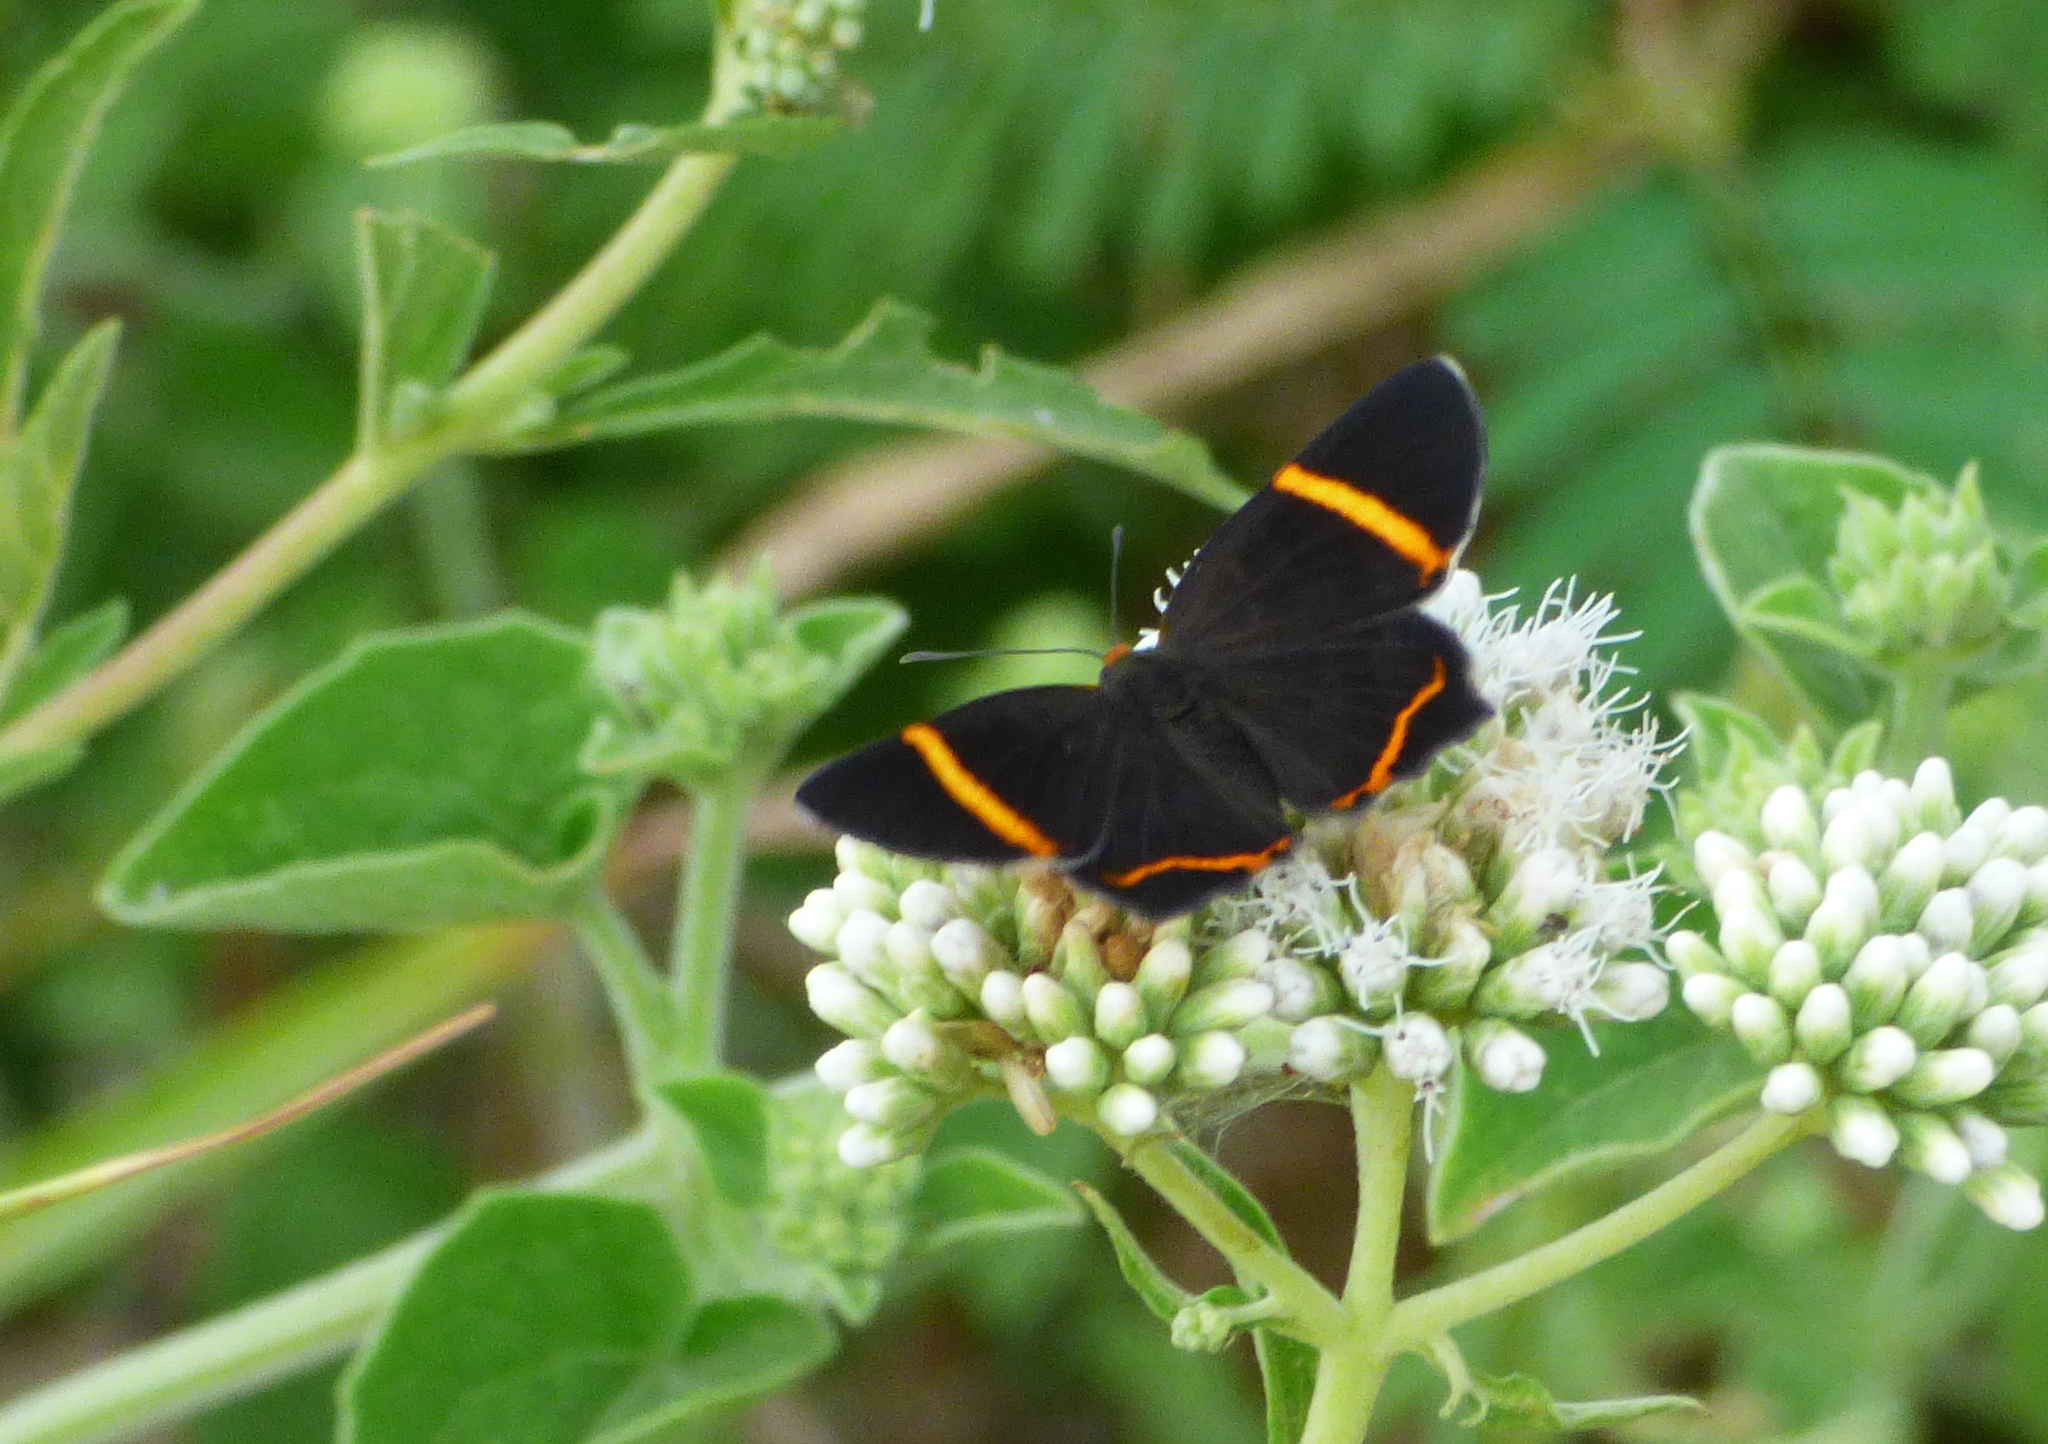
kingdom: Animalia
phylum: Arthropoda
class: Insecta
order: Lepidoptera
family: Riodinidae
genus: Riodina
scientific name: Riodina lysippoides
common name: Little dancer metalmark
